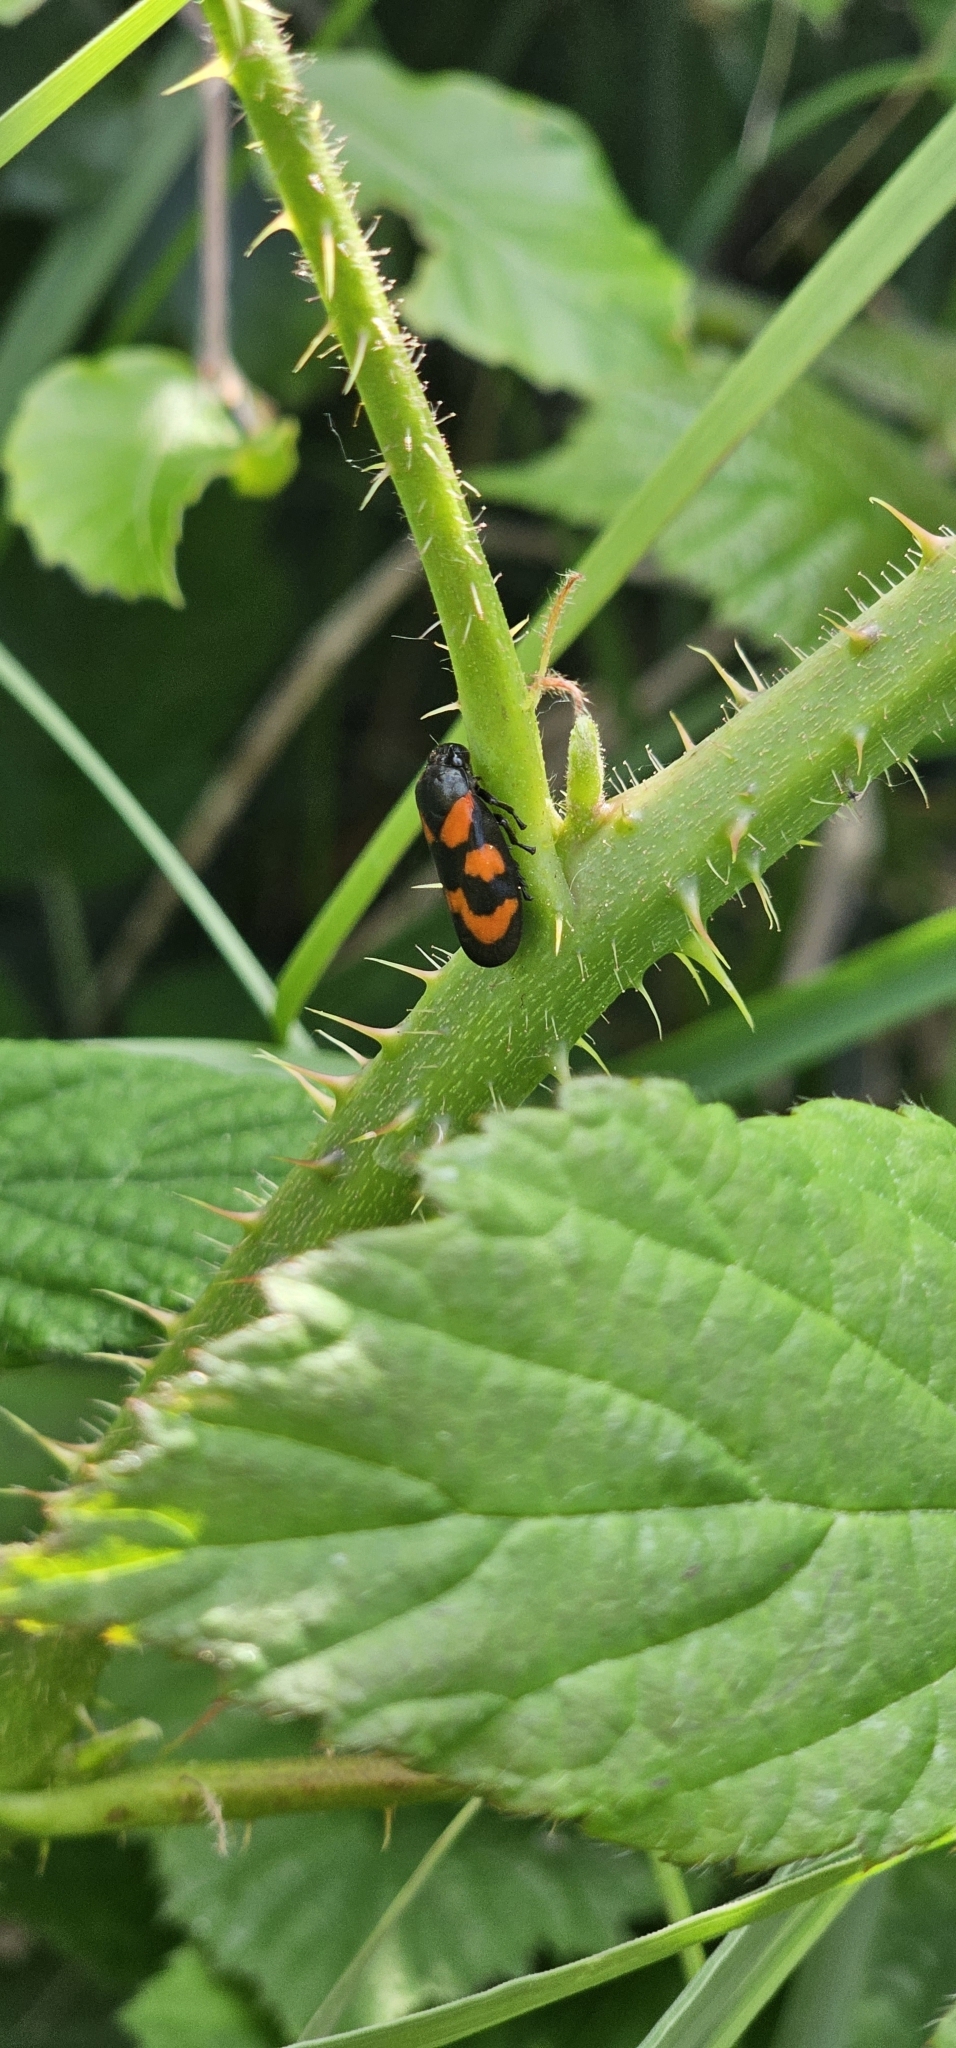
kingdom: Animalia
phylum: Arthropoda
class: Insecta
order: Hemiptera
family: Cercopidae
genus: Cercopis
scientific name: Cercopis vulnerata
